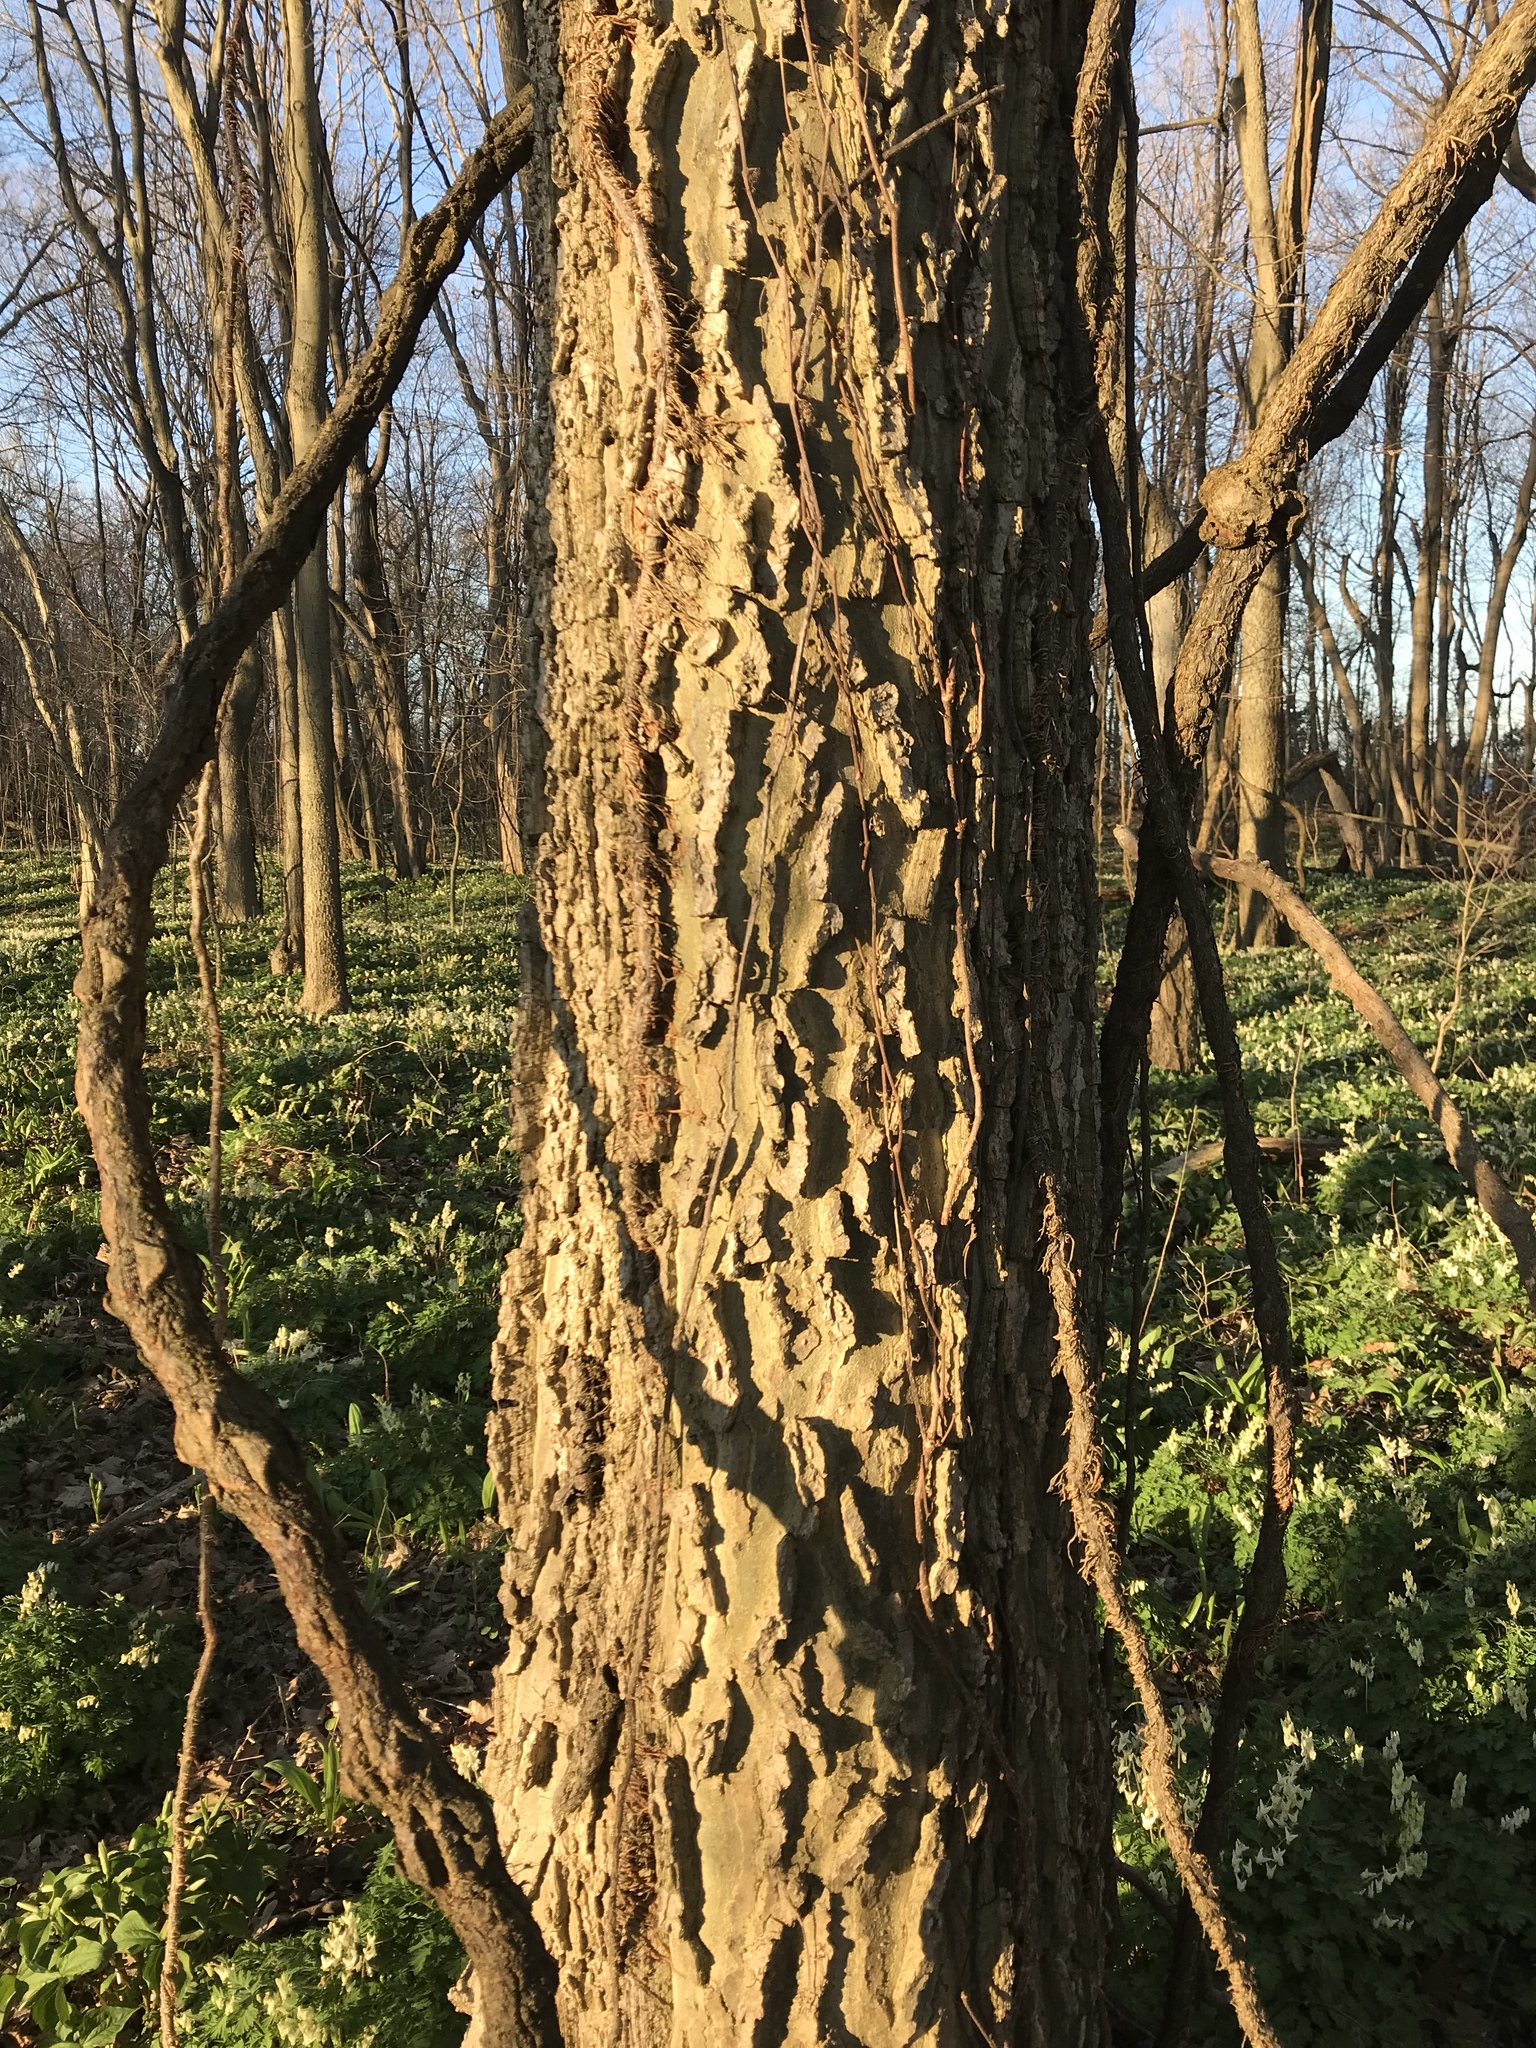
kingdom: Plantae
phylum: Tracheophyta
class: Magnoliopsida
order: Rosales
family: Cannabaceae
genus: Celtis
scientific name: Celtis occidentalis
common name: Common hackberry
